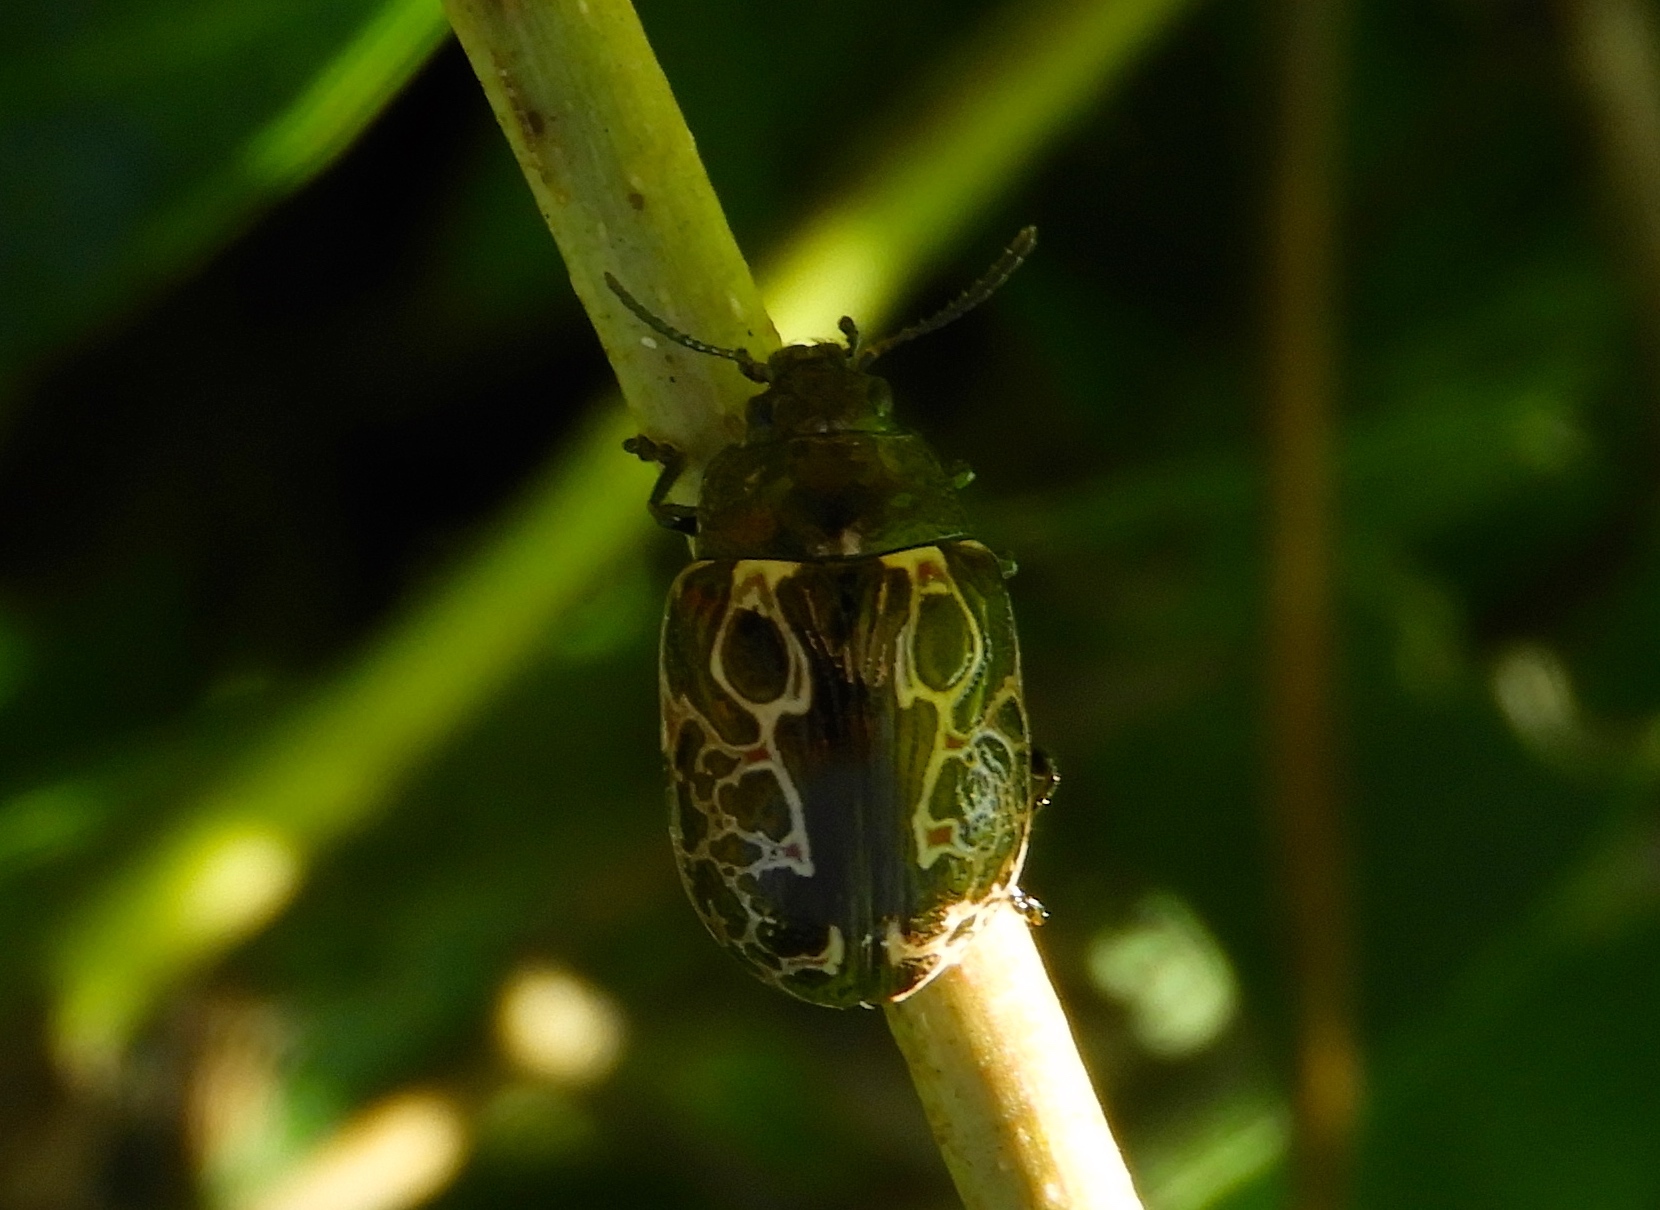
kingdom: Animalia
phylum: Arthropoda
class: Insecta
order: Coleoptera
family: Chrysomelidae
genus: Calligrapha
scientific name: Calligrapha
